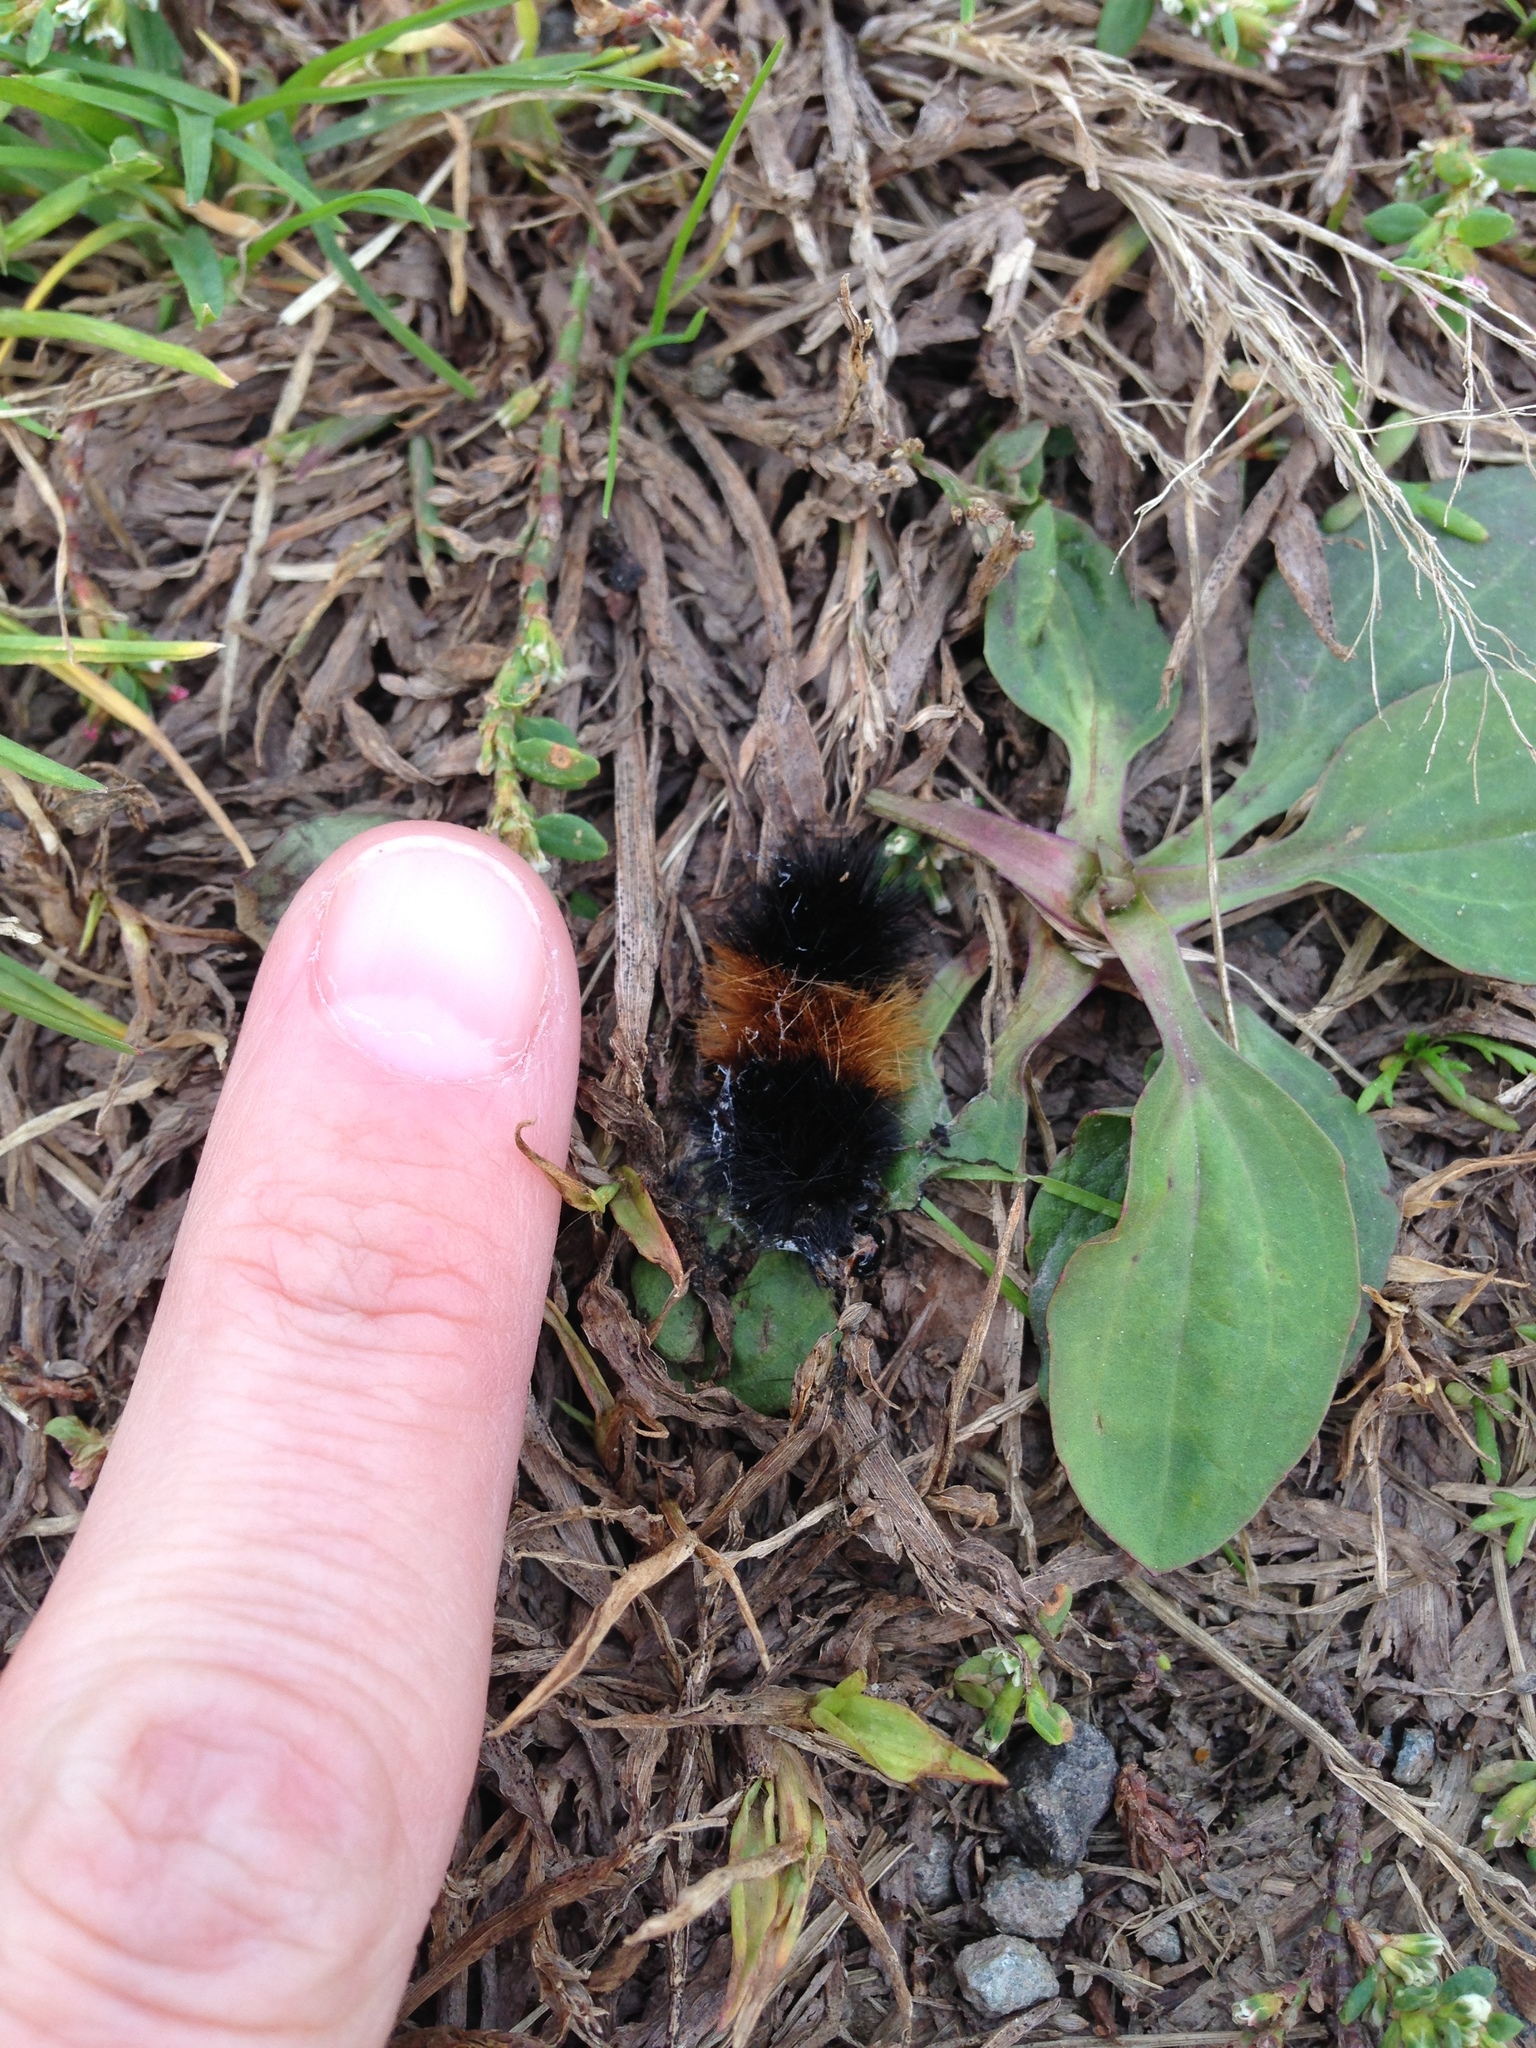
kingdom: Animalia
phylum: Arthropoda
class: Insecta
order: Lepidoptera
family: Erebidae
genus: Pyrrharctia
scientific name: Pyrrharctia isabella
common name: Isabella tiger moth
